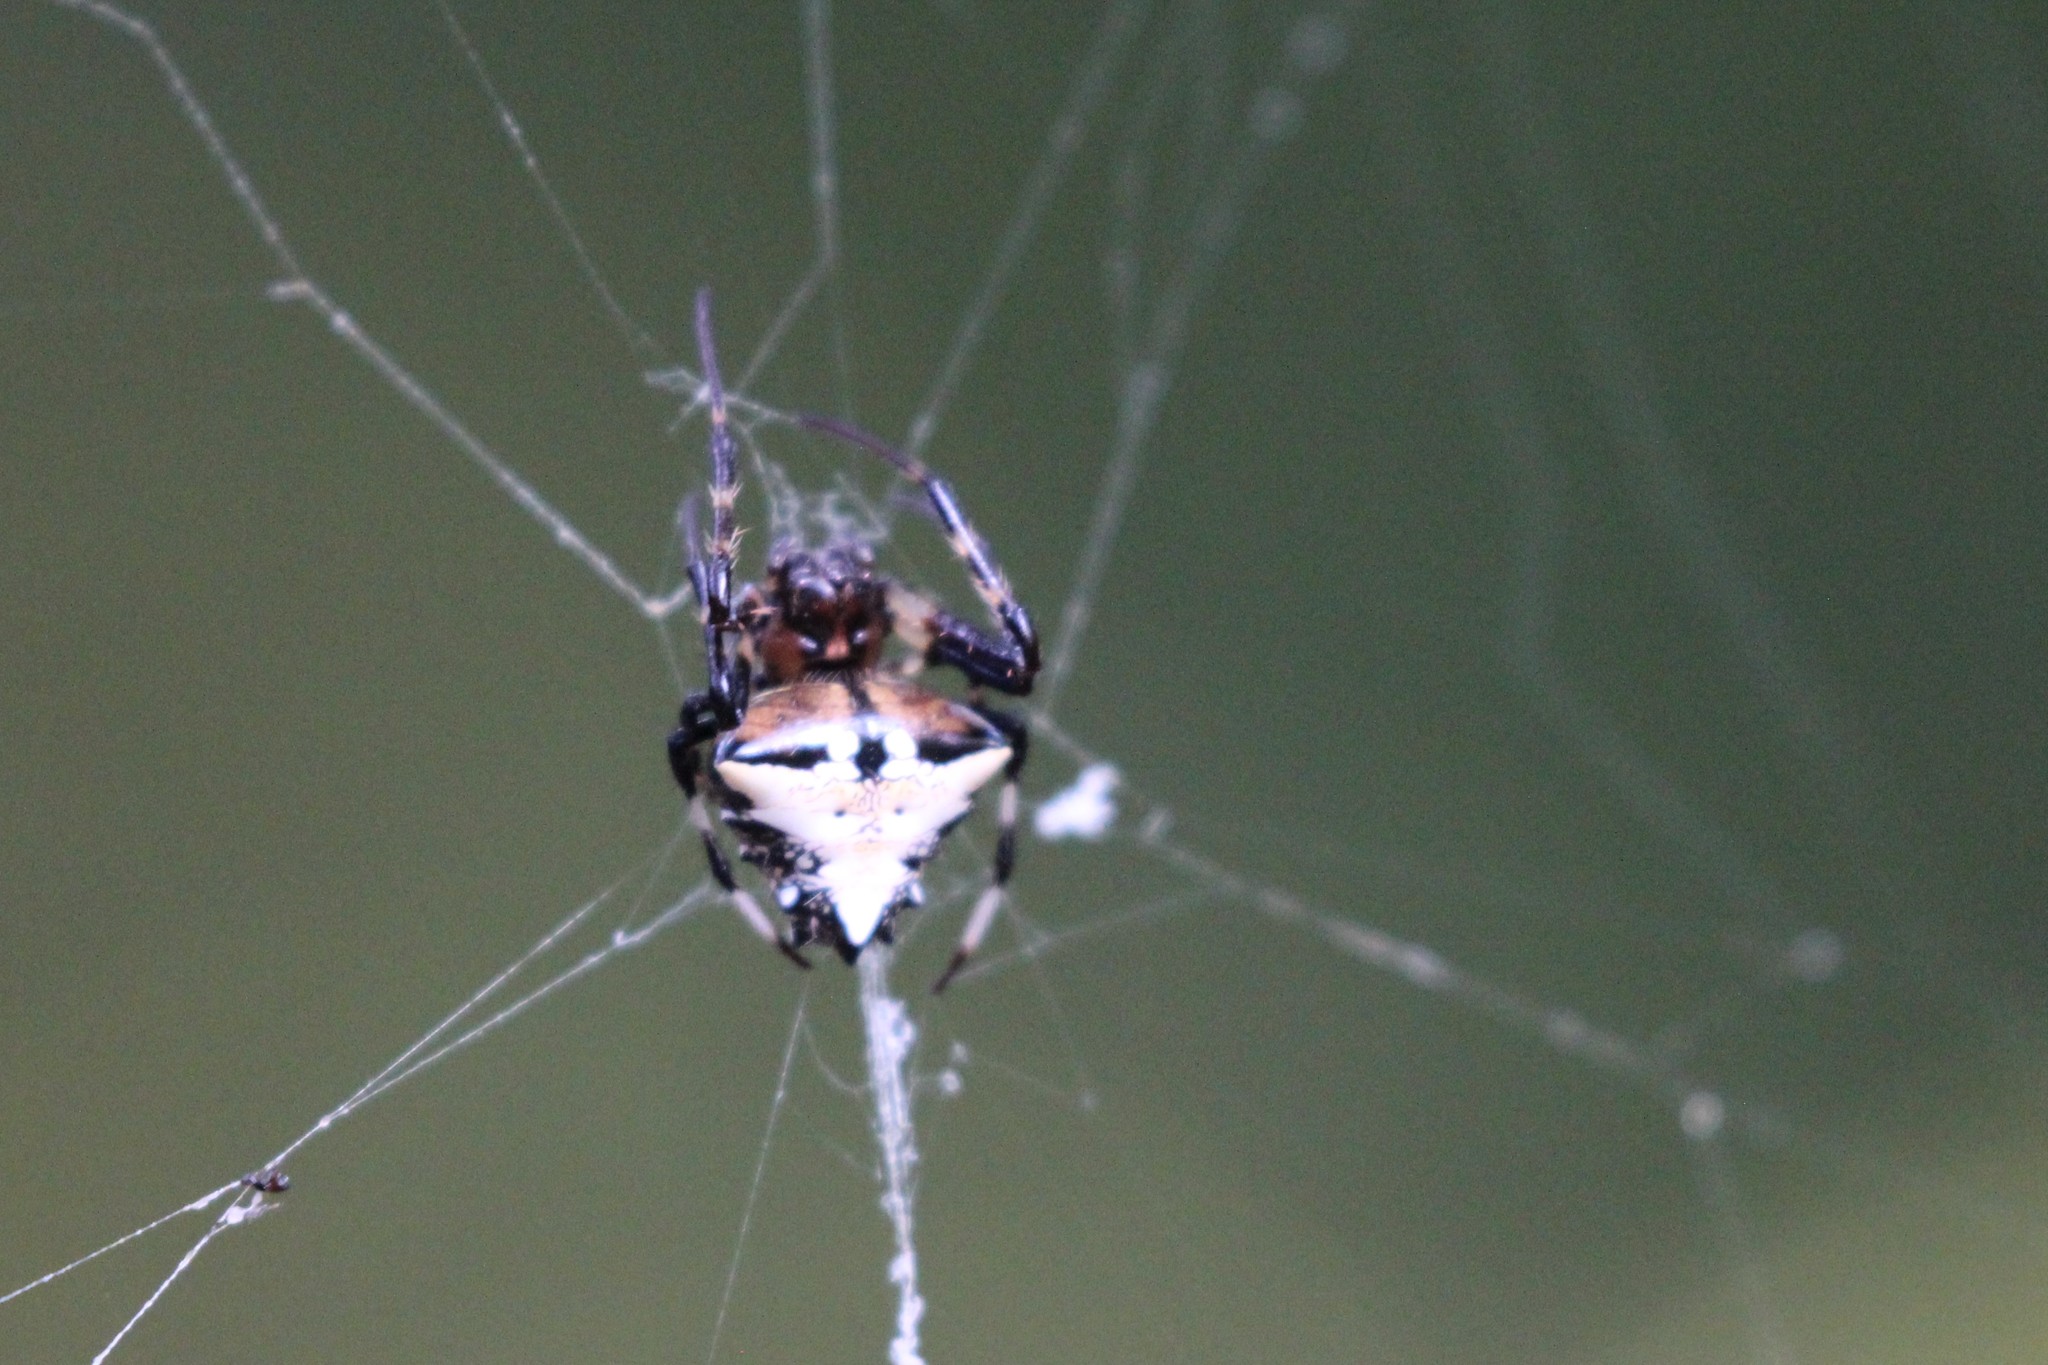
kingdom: Animalia
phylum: Arthropoda
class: Arachnida
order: Araneae
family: Araneidae
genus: Verrucosa
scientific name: Verrucosa arenata
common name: Orb weavers
